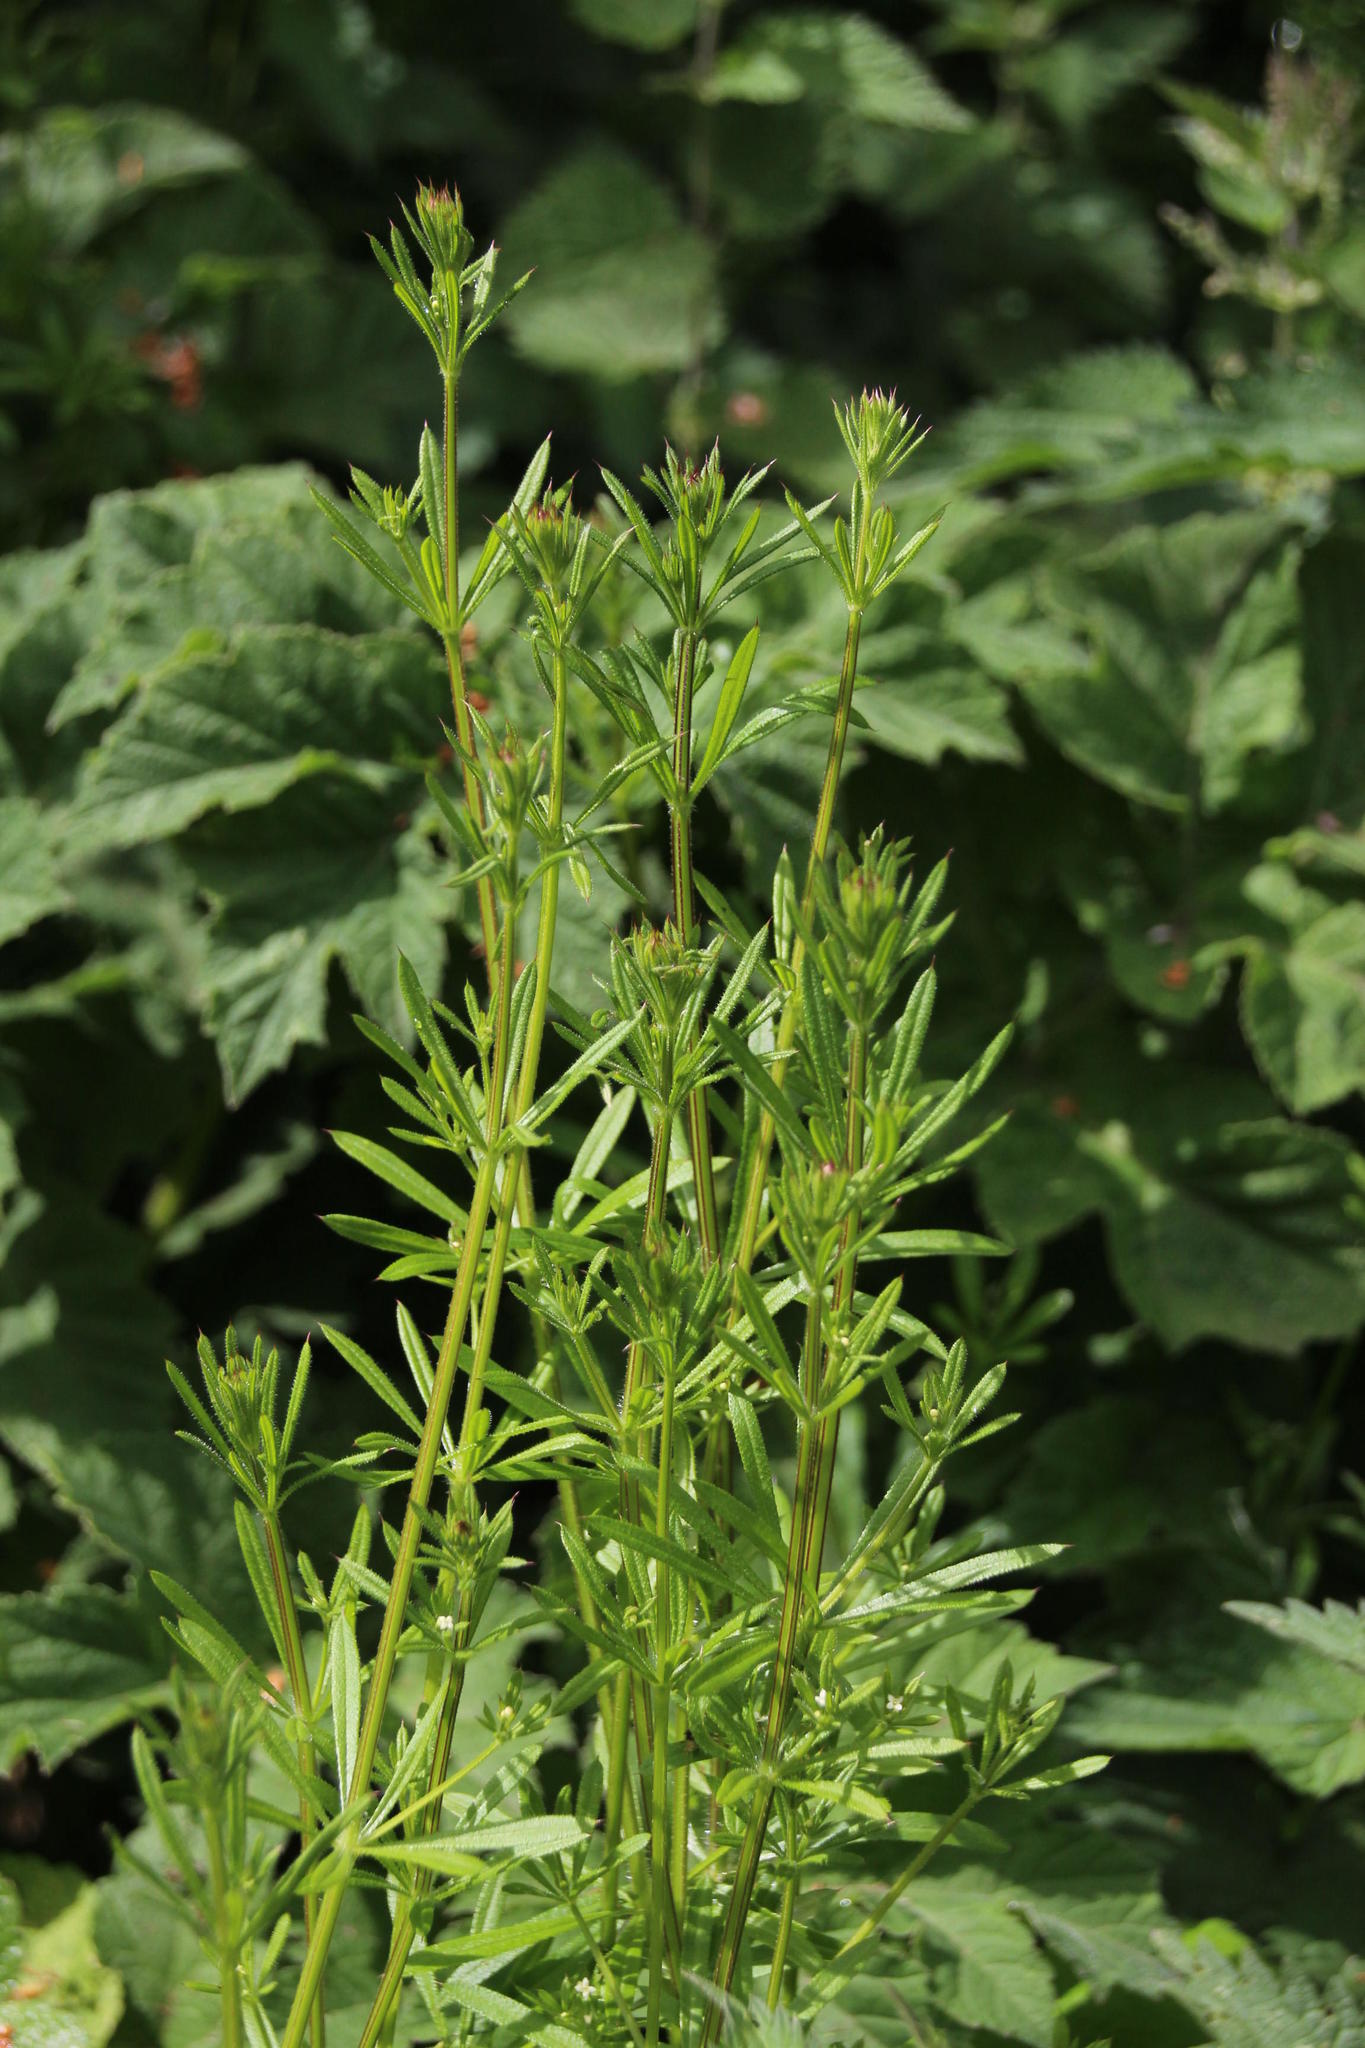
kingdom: Plantae
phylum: Tracheophyta
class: Magnoliopsida
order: Gentianales
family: Rubiaceae
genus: Galium
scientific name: Galium aparine
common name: Cleavers
